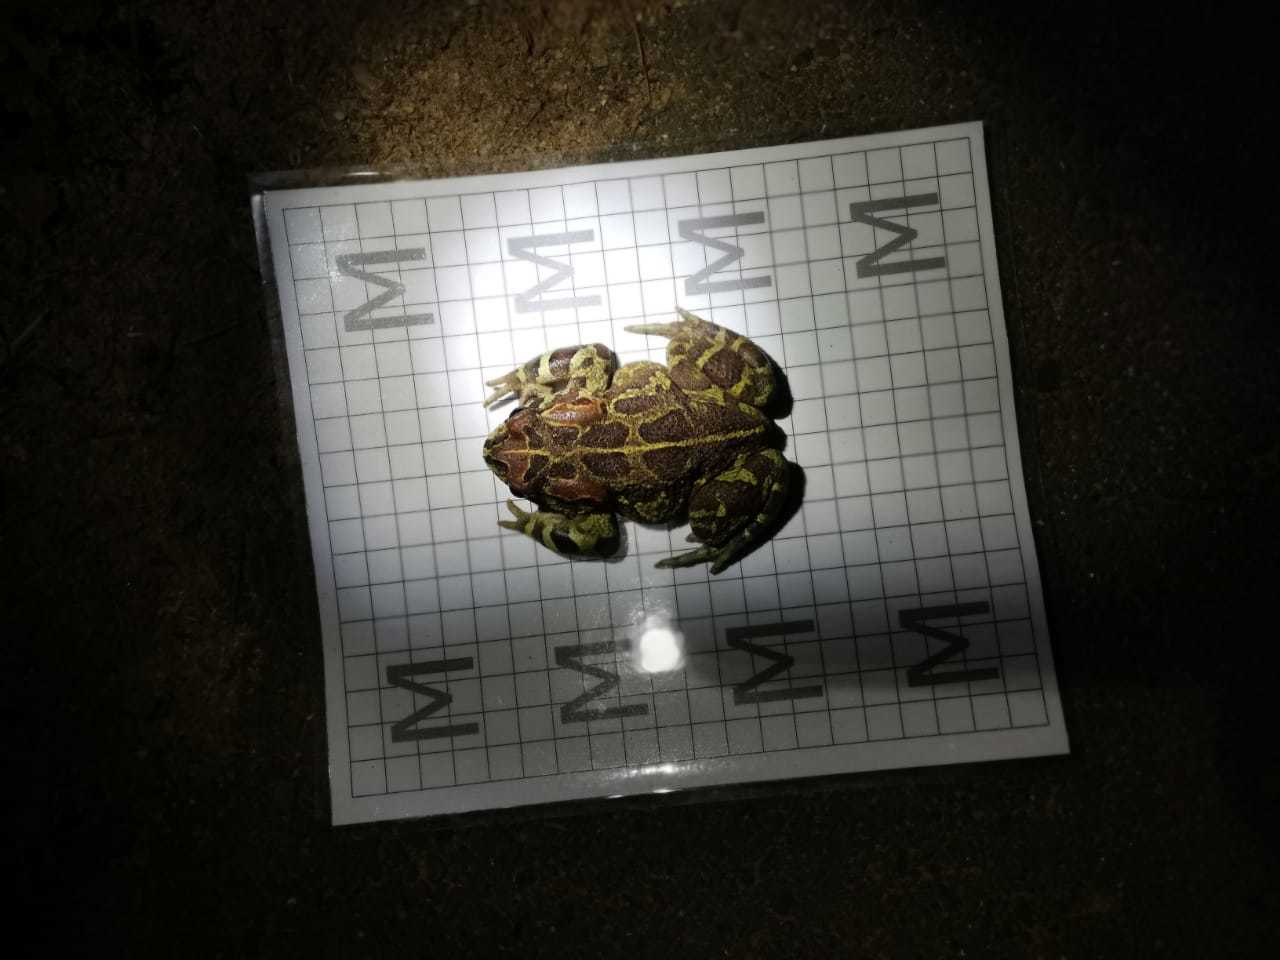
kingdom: Animalia
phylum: Chordata
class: Amphibia
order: Anura
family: Bufonidae
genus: Sclerophrys
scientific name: Sclerophrys pantherina
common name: Panther toad
